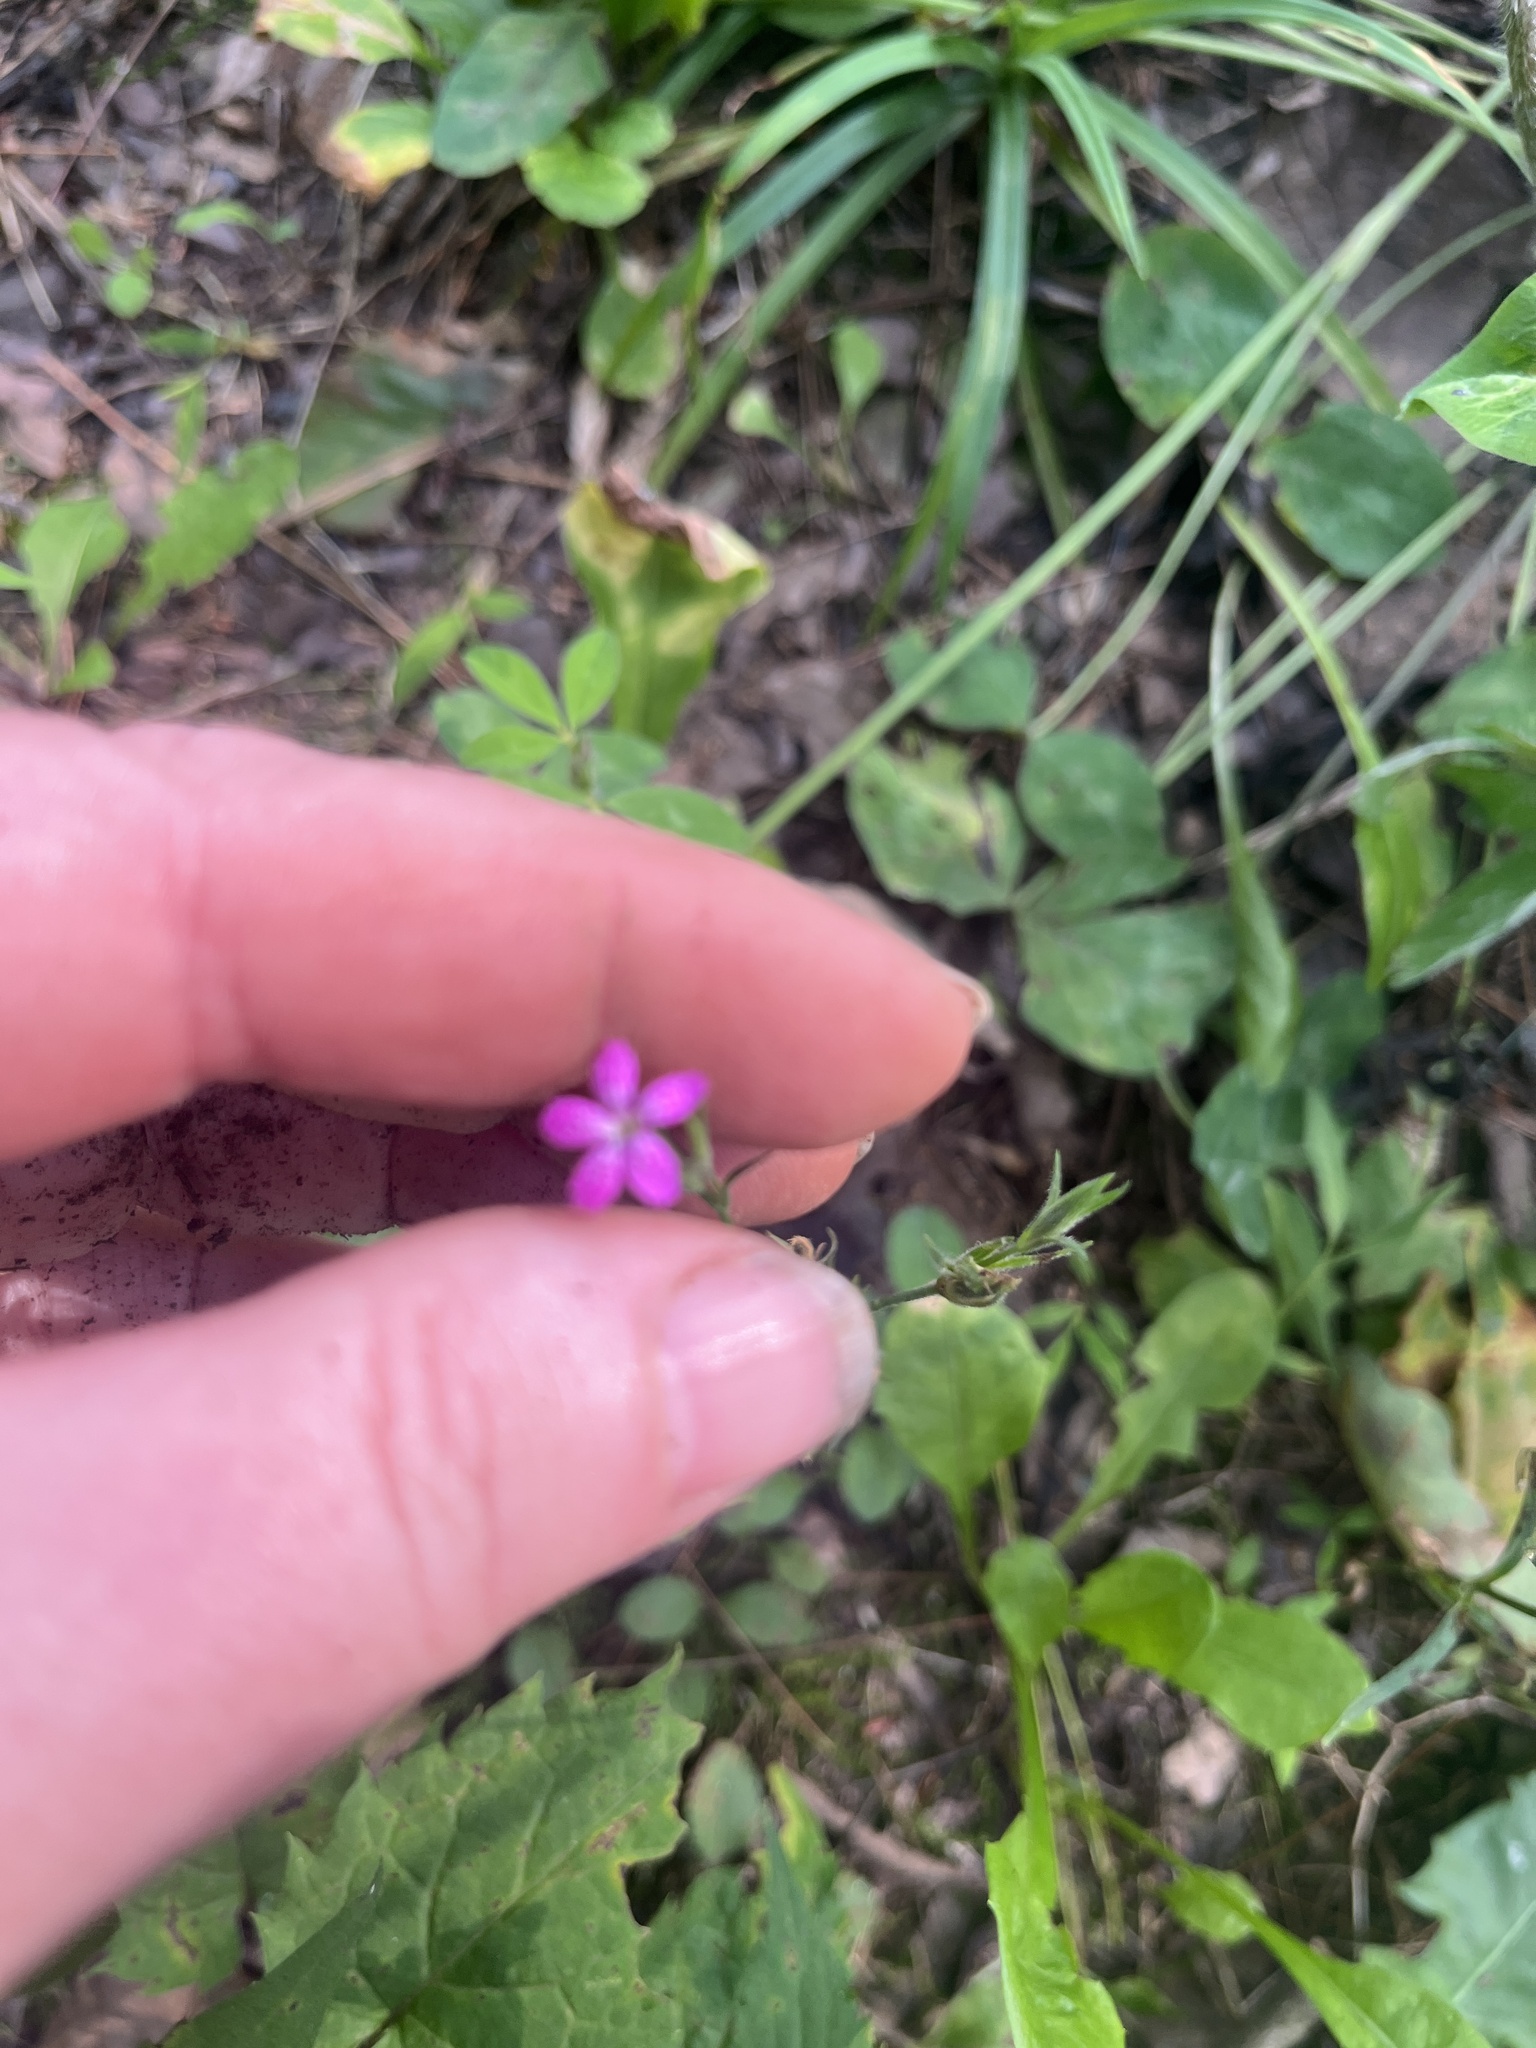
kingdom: Plantae
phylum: Tracheophyta
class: Magnoliopsida
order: Caryophyllales
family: Caryophyllaceae
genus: Dianthus
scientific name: Dianthus armeria
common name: Deptford pink
